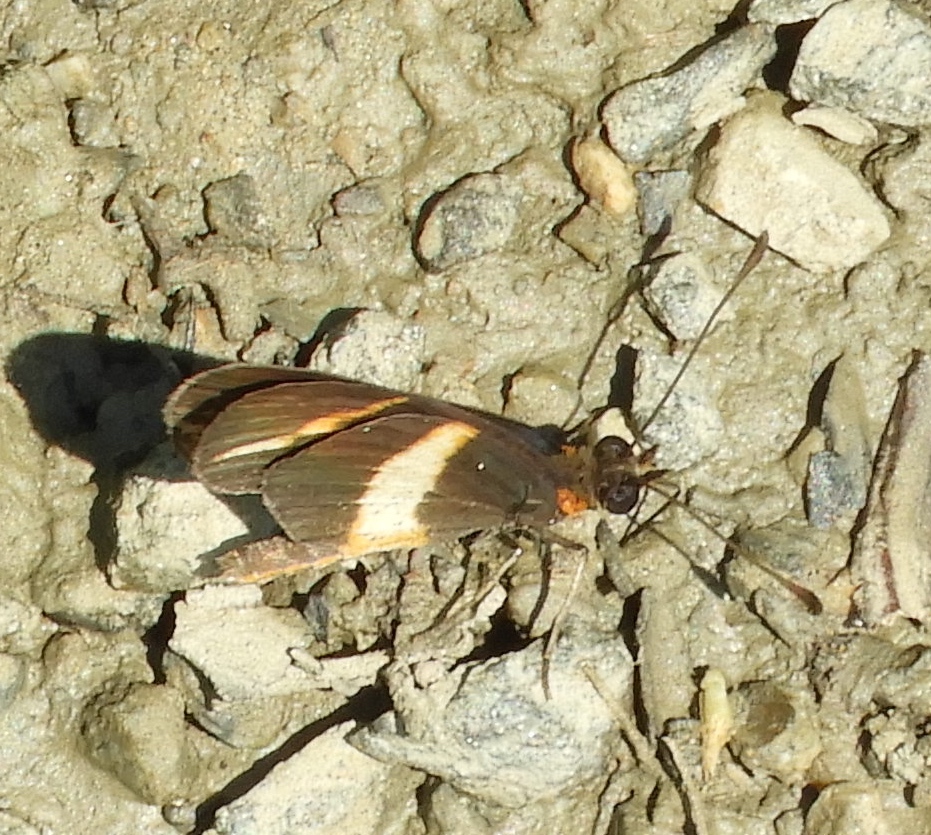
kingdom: Animalia
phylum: Arthropoda
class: Insecta
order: Lepidoptera
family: Nymphalidae
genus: Microtia
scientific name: Microtia elva
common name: Elf
